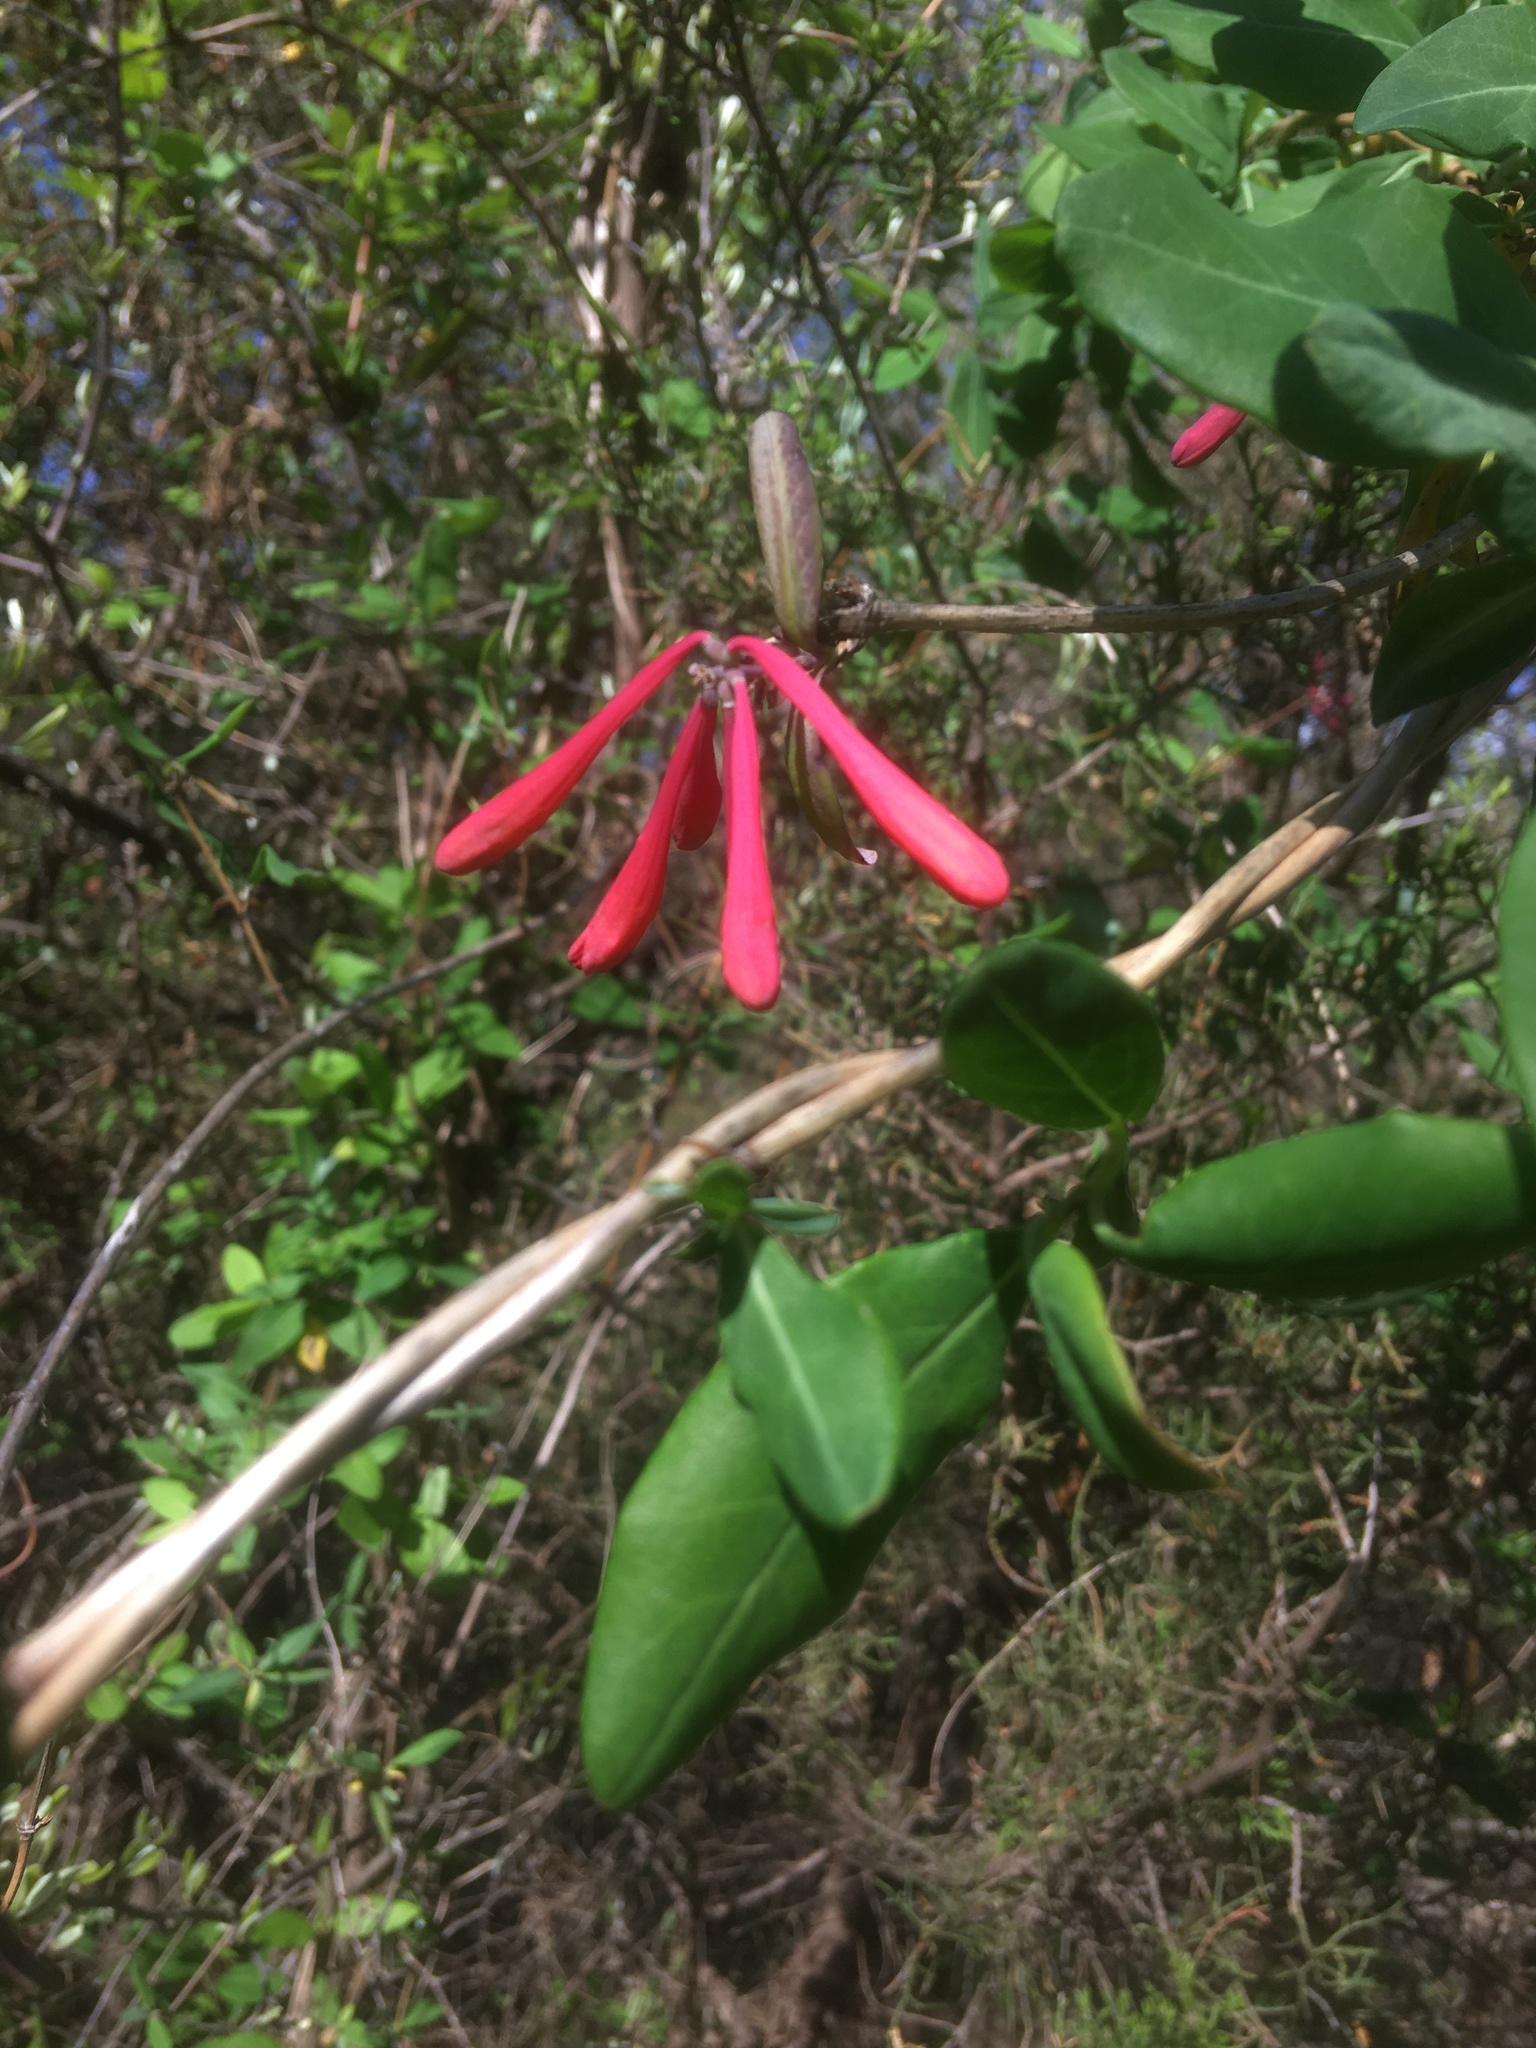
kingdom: Plantae
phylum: Tracheophyta
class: Magnoliopsida
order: Dipsacales
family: Caprifoliaceae
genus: Lonicera
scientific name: Lonicera sempervirens
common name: Coral honeysuckle
